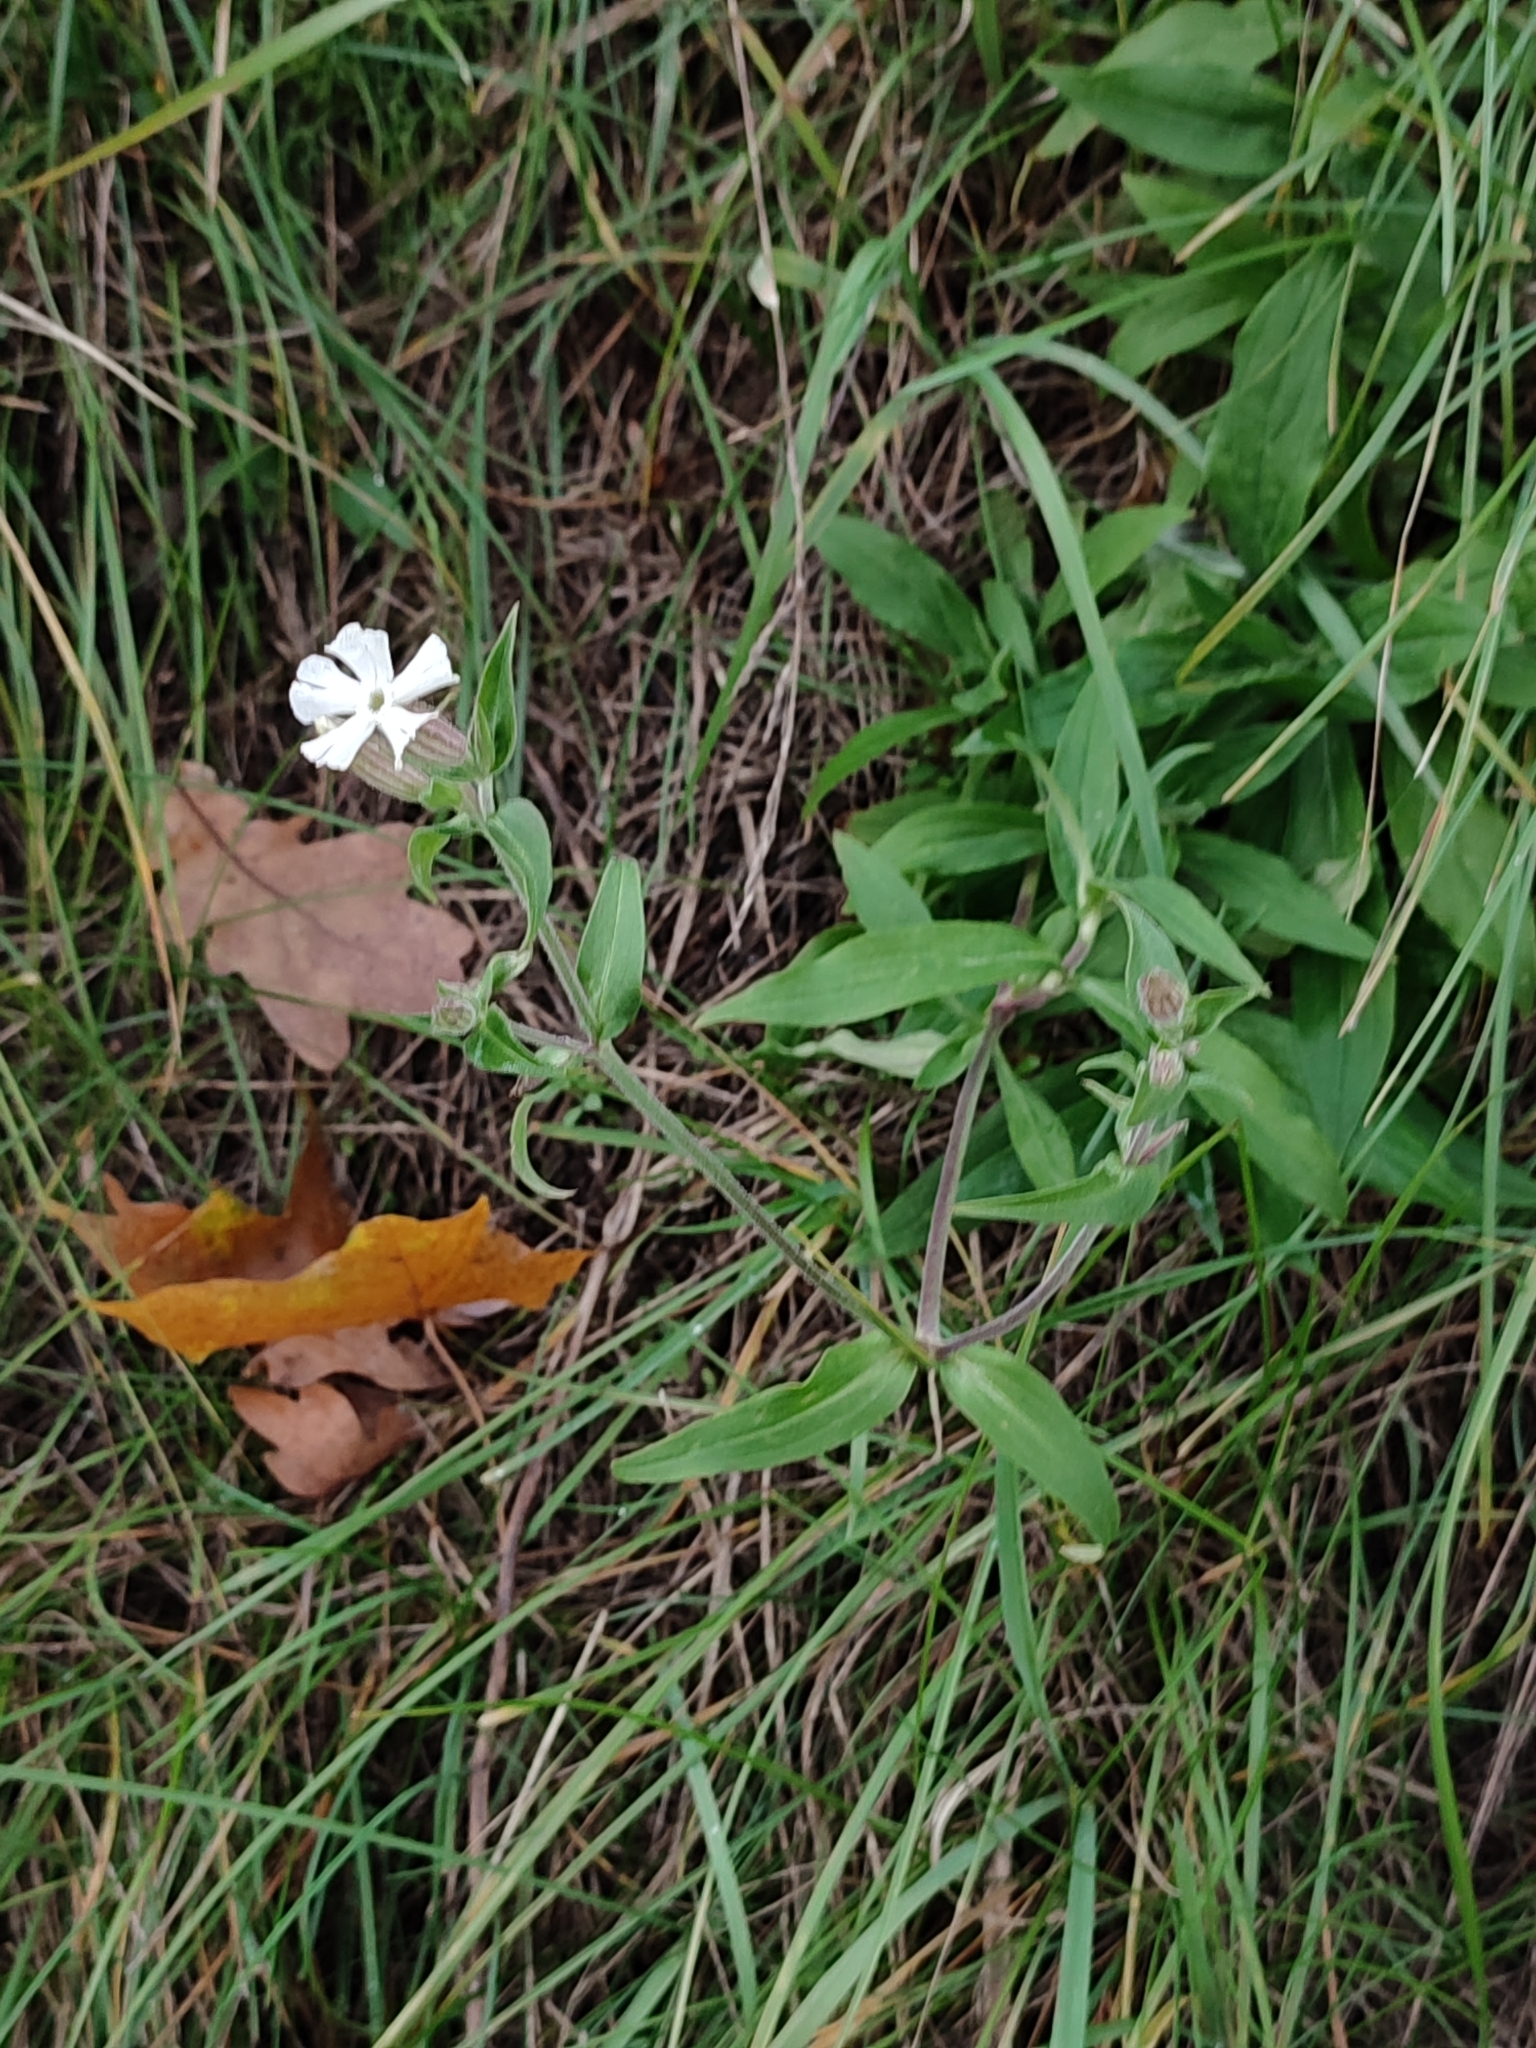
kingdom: Plantae
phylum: Tracheophyta
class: Magnoliopsida
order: Caryophyllales
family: Caryophyllaceae
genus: Silene
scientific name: Silene latifolia
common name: White campion
